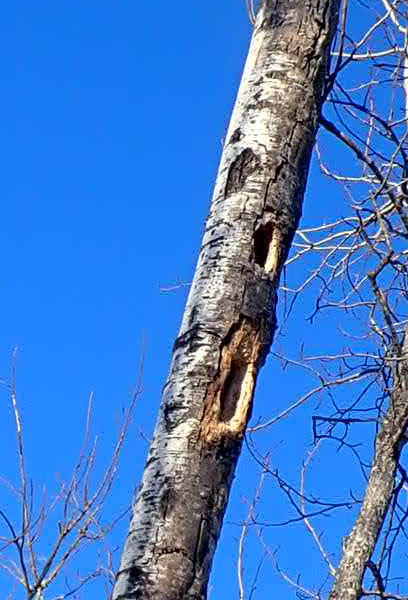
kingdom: Animalia
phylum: Chordata
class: Aves
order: Piciformes
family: Picidae
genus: Dryocopus
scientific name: Dryocopus pileatus
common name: Pileated woodpecker
